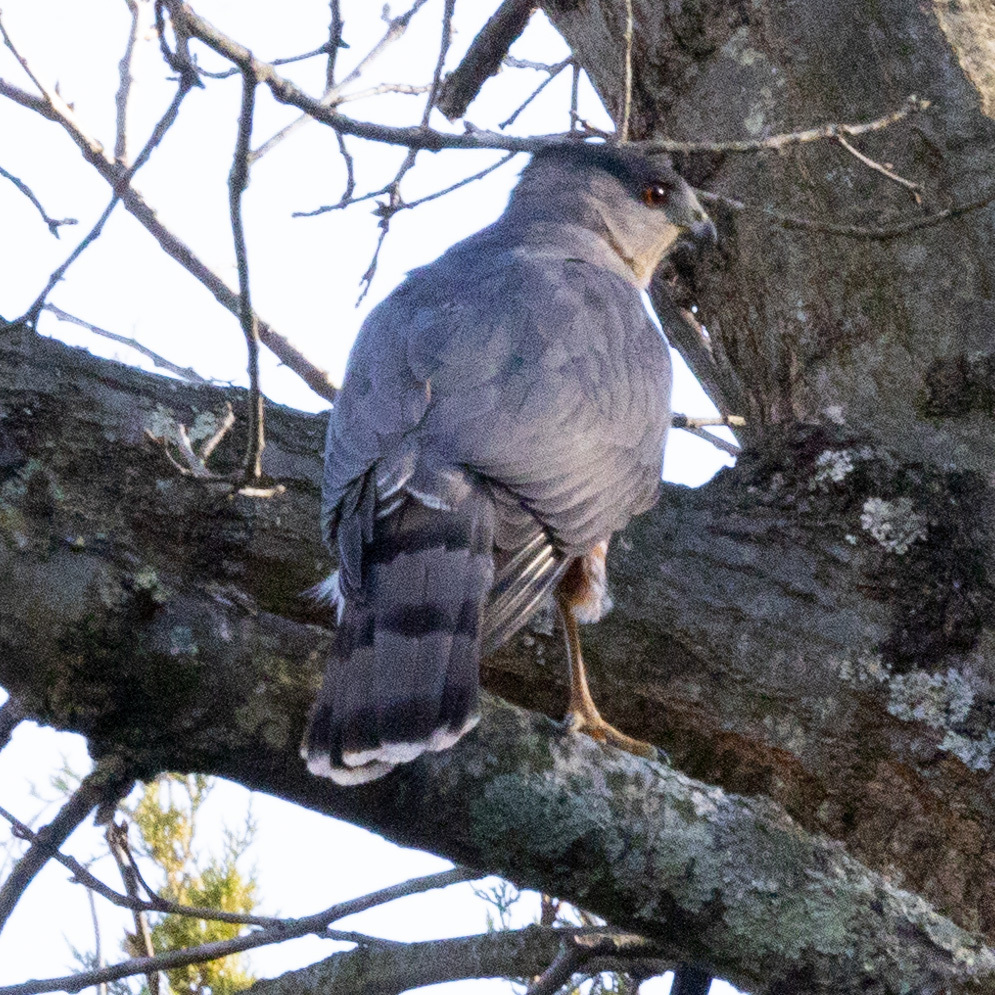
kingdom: Animalia
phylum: Chordata
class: Aves
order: Accipitriformes
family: Accipitridae
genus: Accipiter
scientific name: Accipiter cooperii
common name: Cooper's hawk
